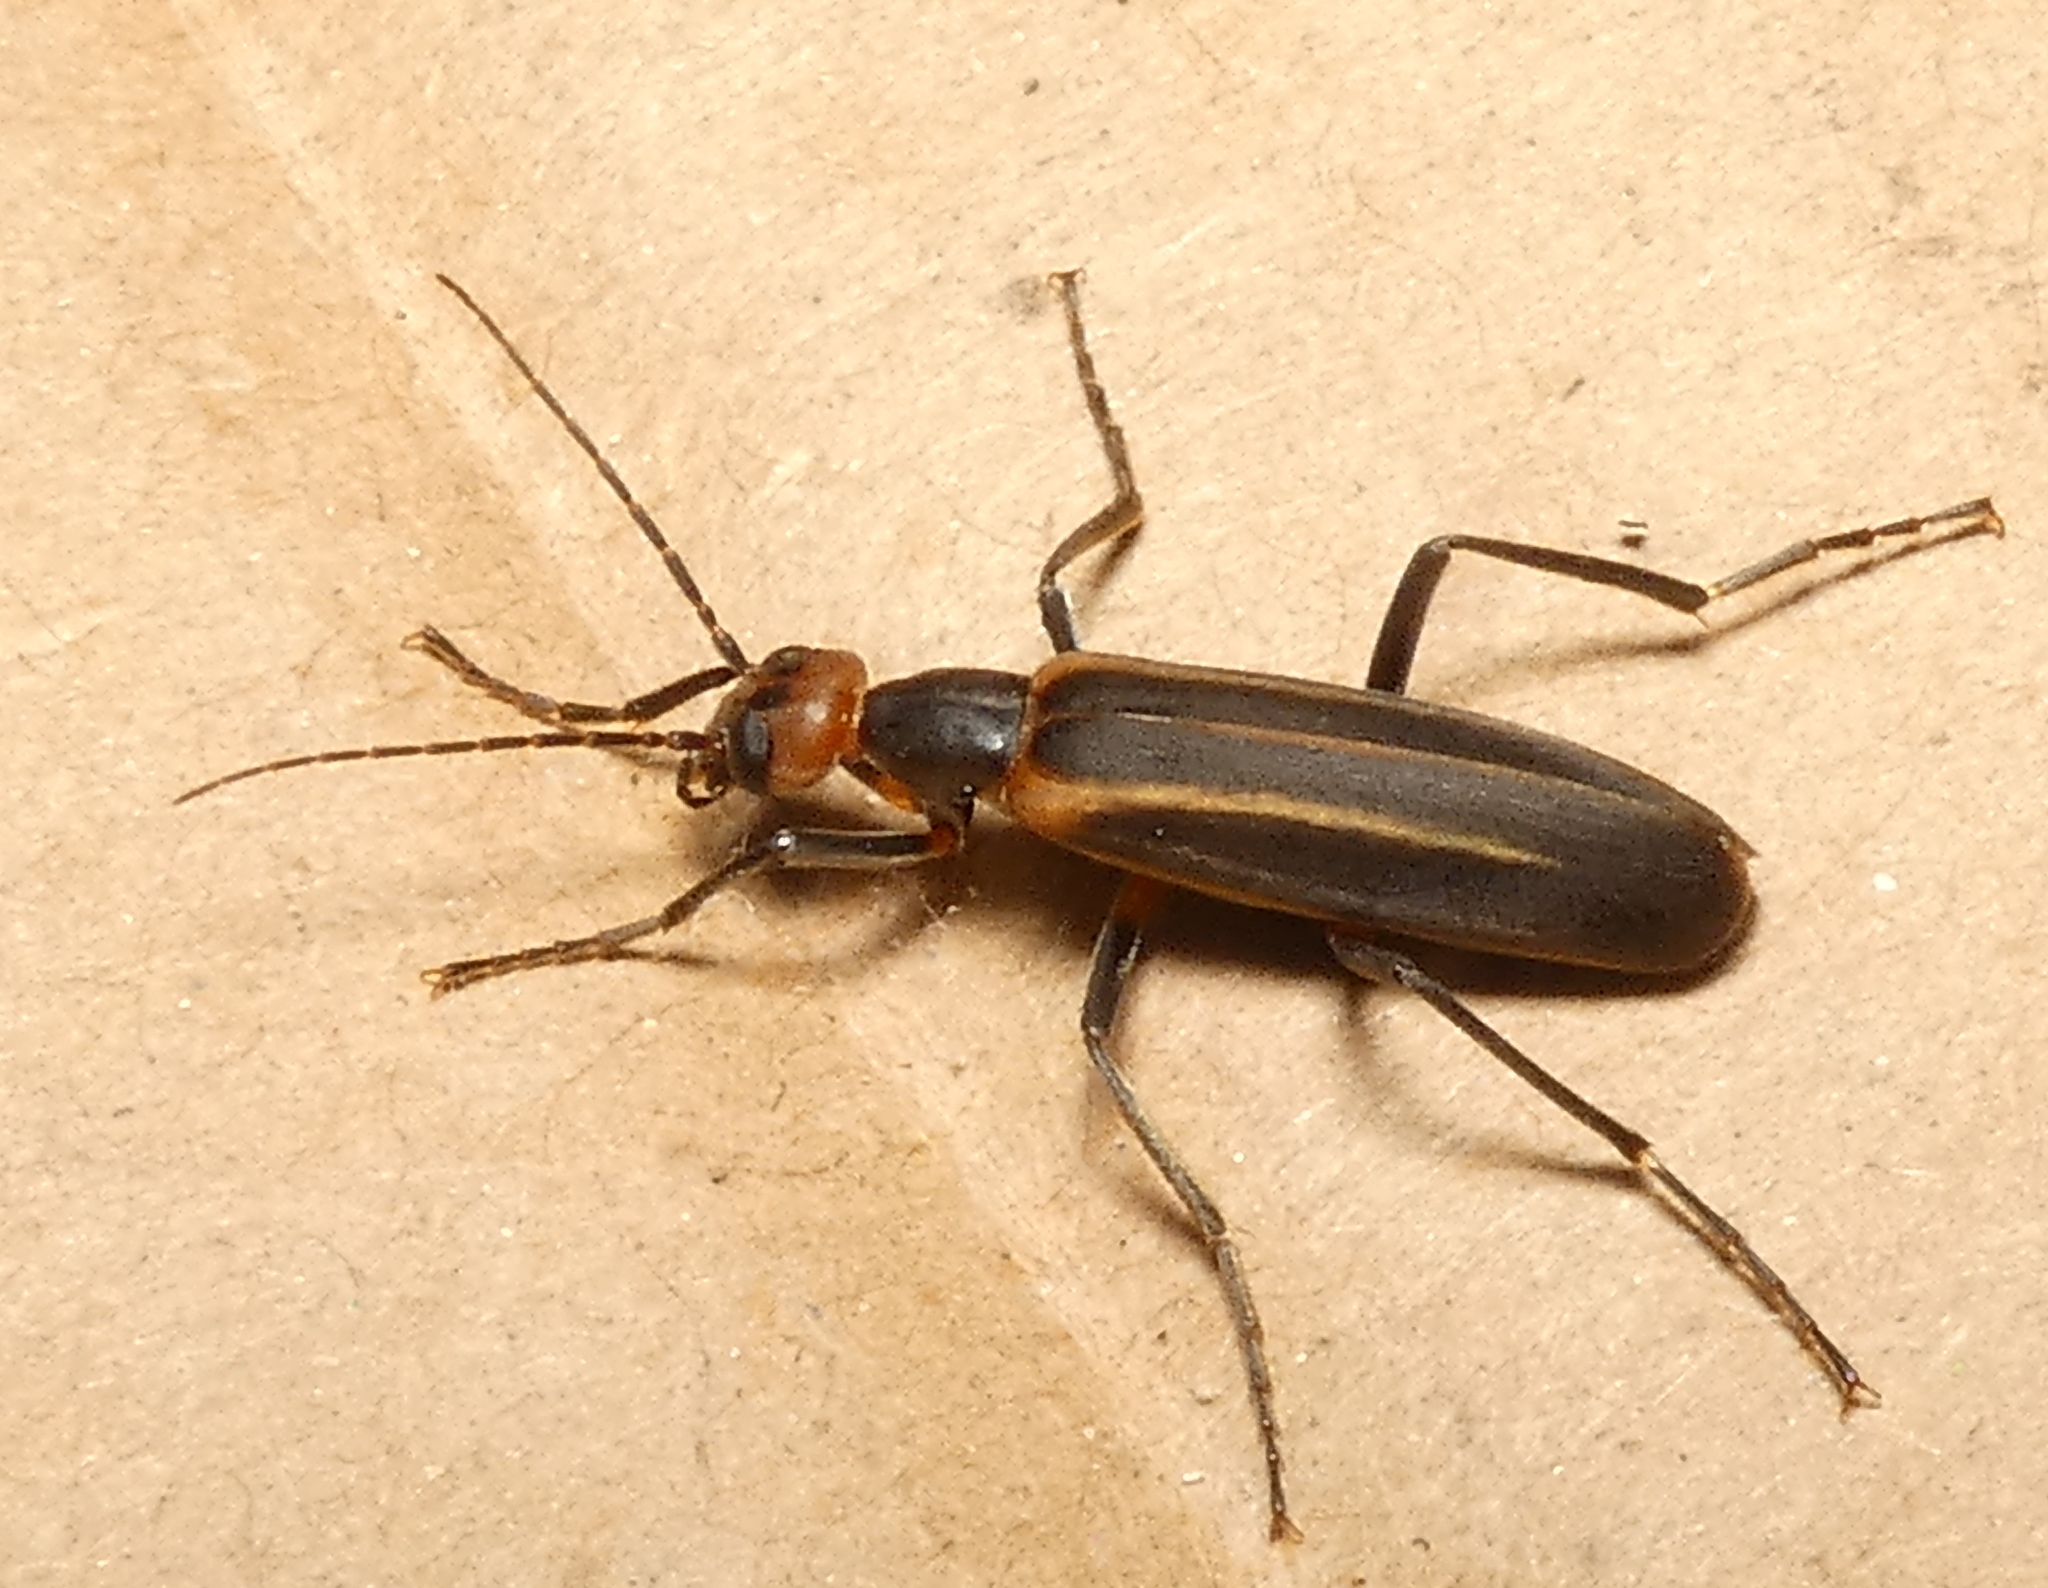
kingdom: Animalia
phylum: Arthropoda
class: Insecta
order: Coleoptera
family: Meloidae
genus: Epicauta
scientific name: Epicauta grammica
